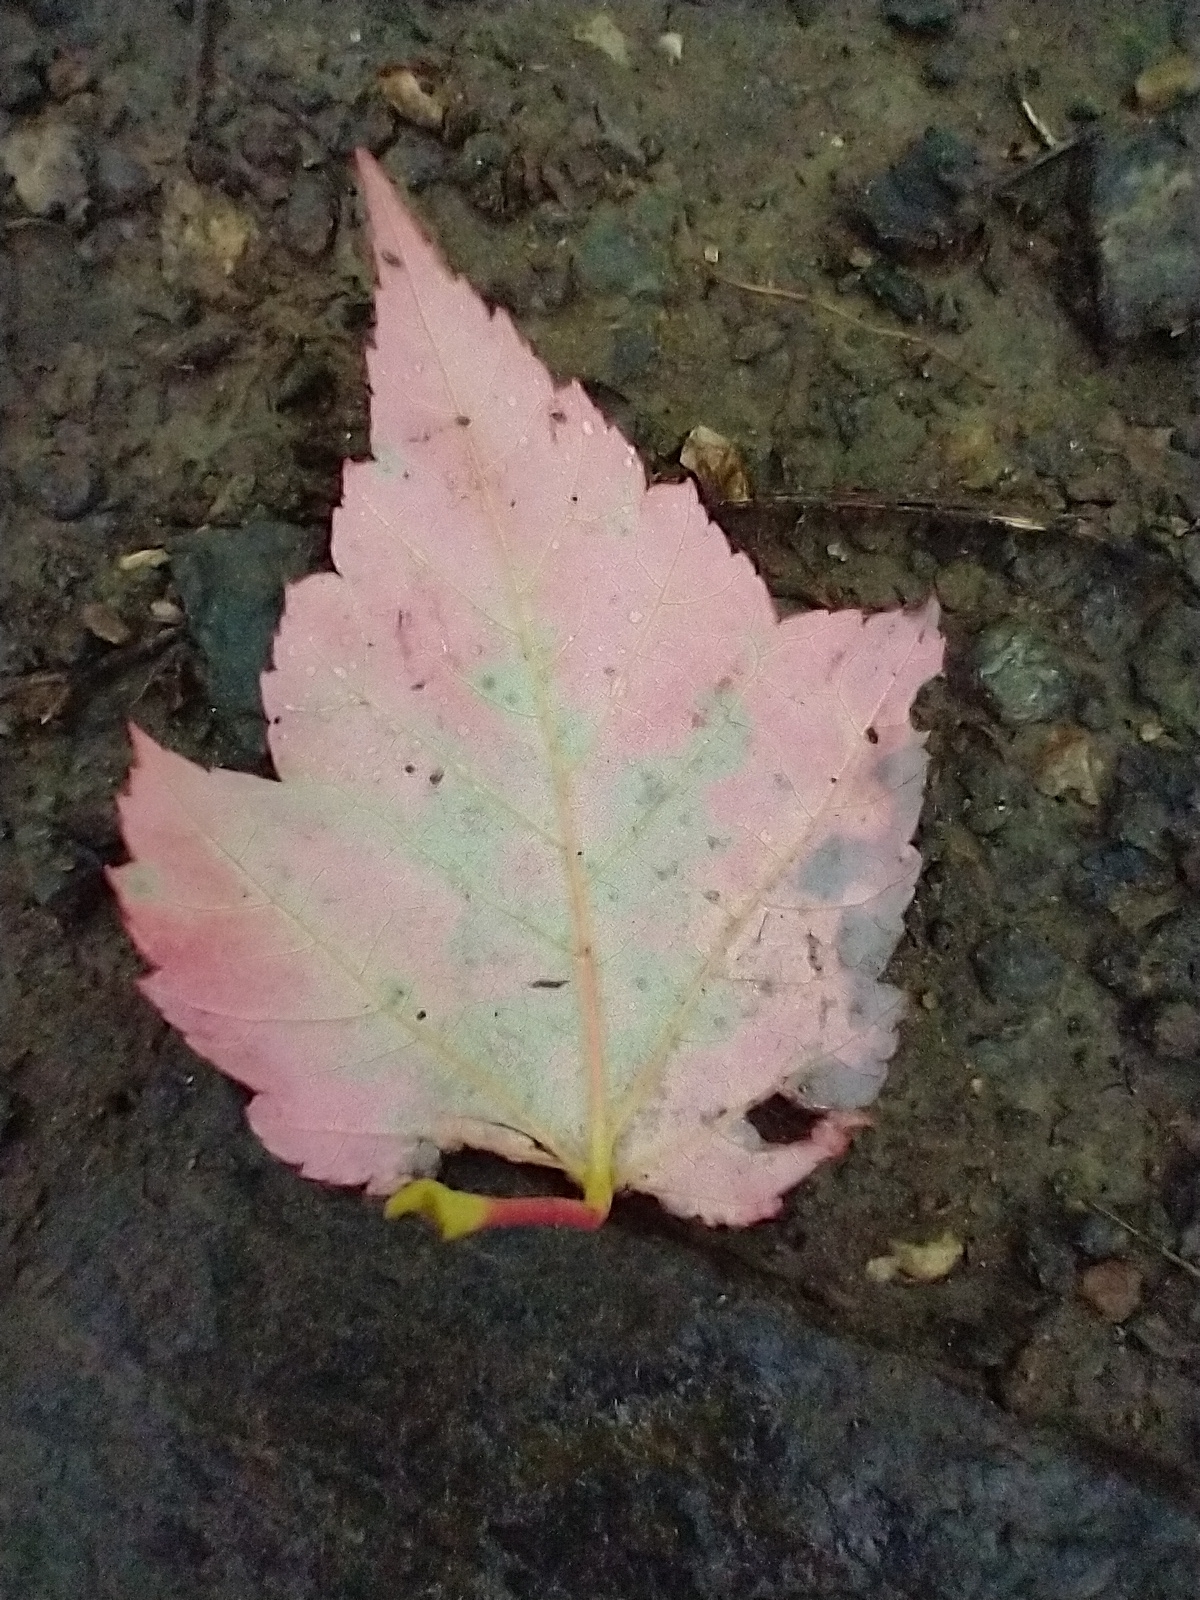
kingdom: Plantae
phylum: Tracheophyta
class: Magnoliopsida
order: Sapindales
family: Sapindaceae
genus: Acer
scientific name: Acer rubrum
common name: Red maple
